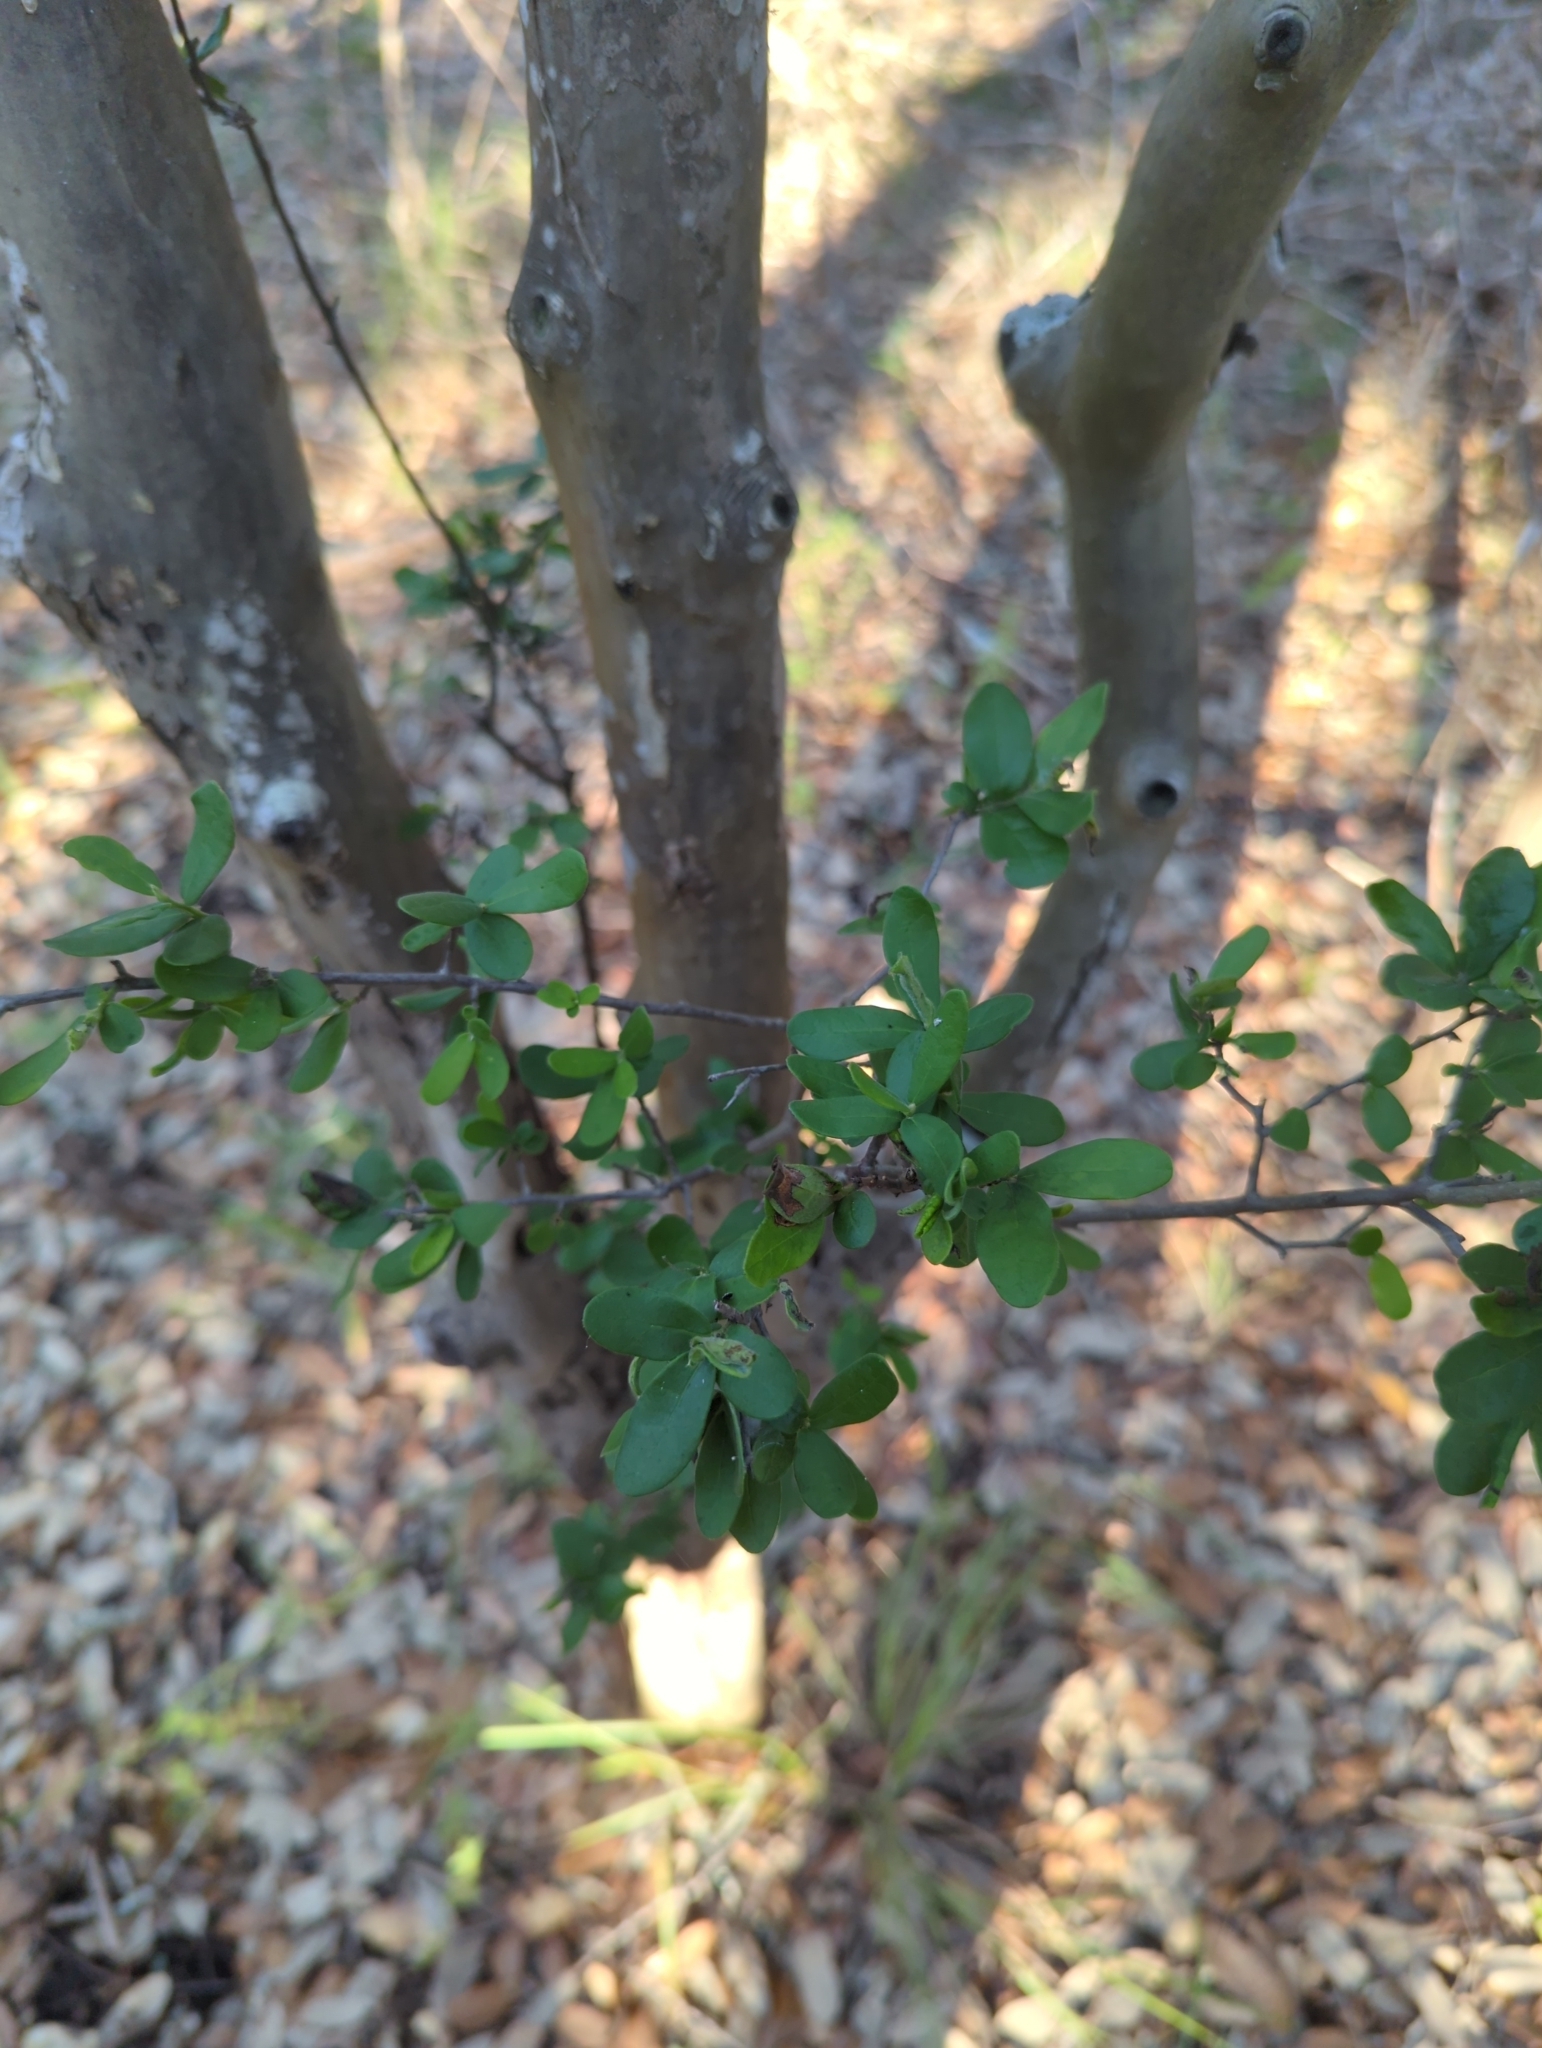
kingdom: Plantae
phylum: Tracheophyta
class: Magnoliopsida
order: Ericales
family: Ebenaceae
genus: Diospyros
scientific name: Diospyros texana
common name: Texas persimmon
